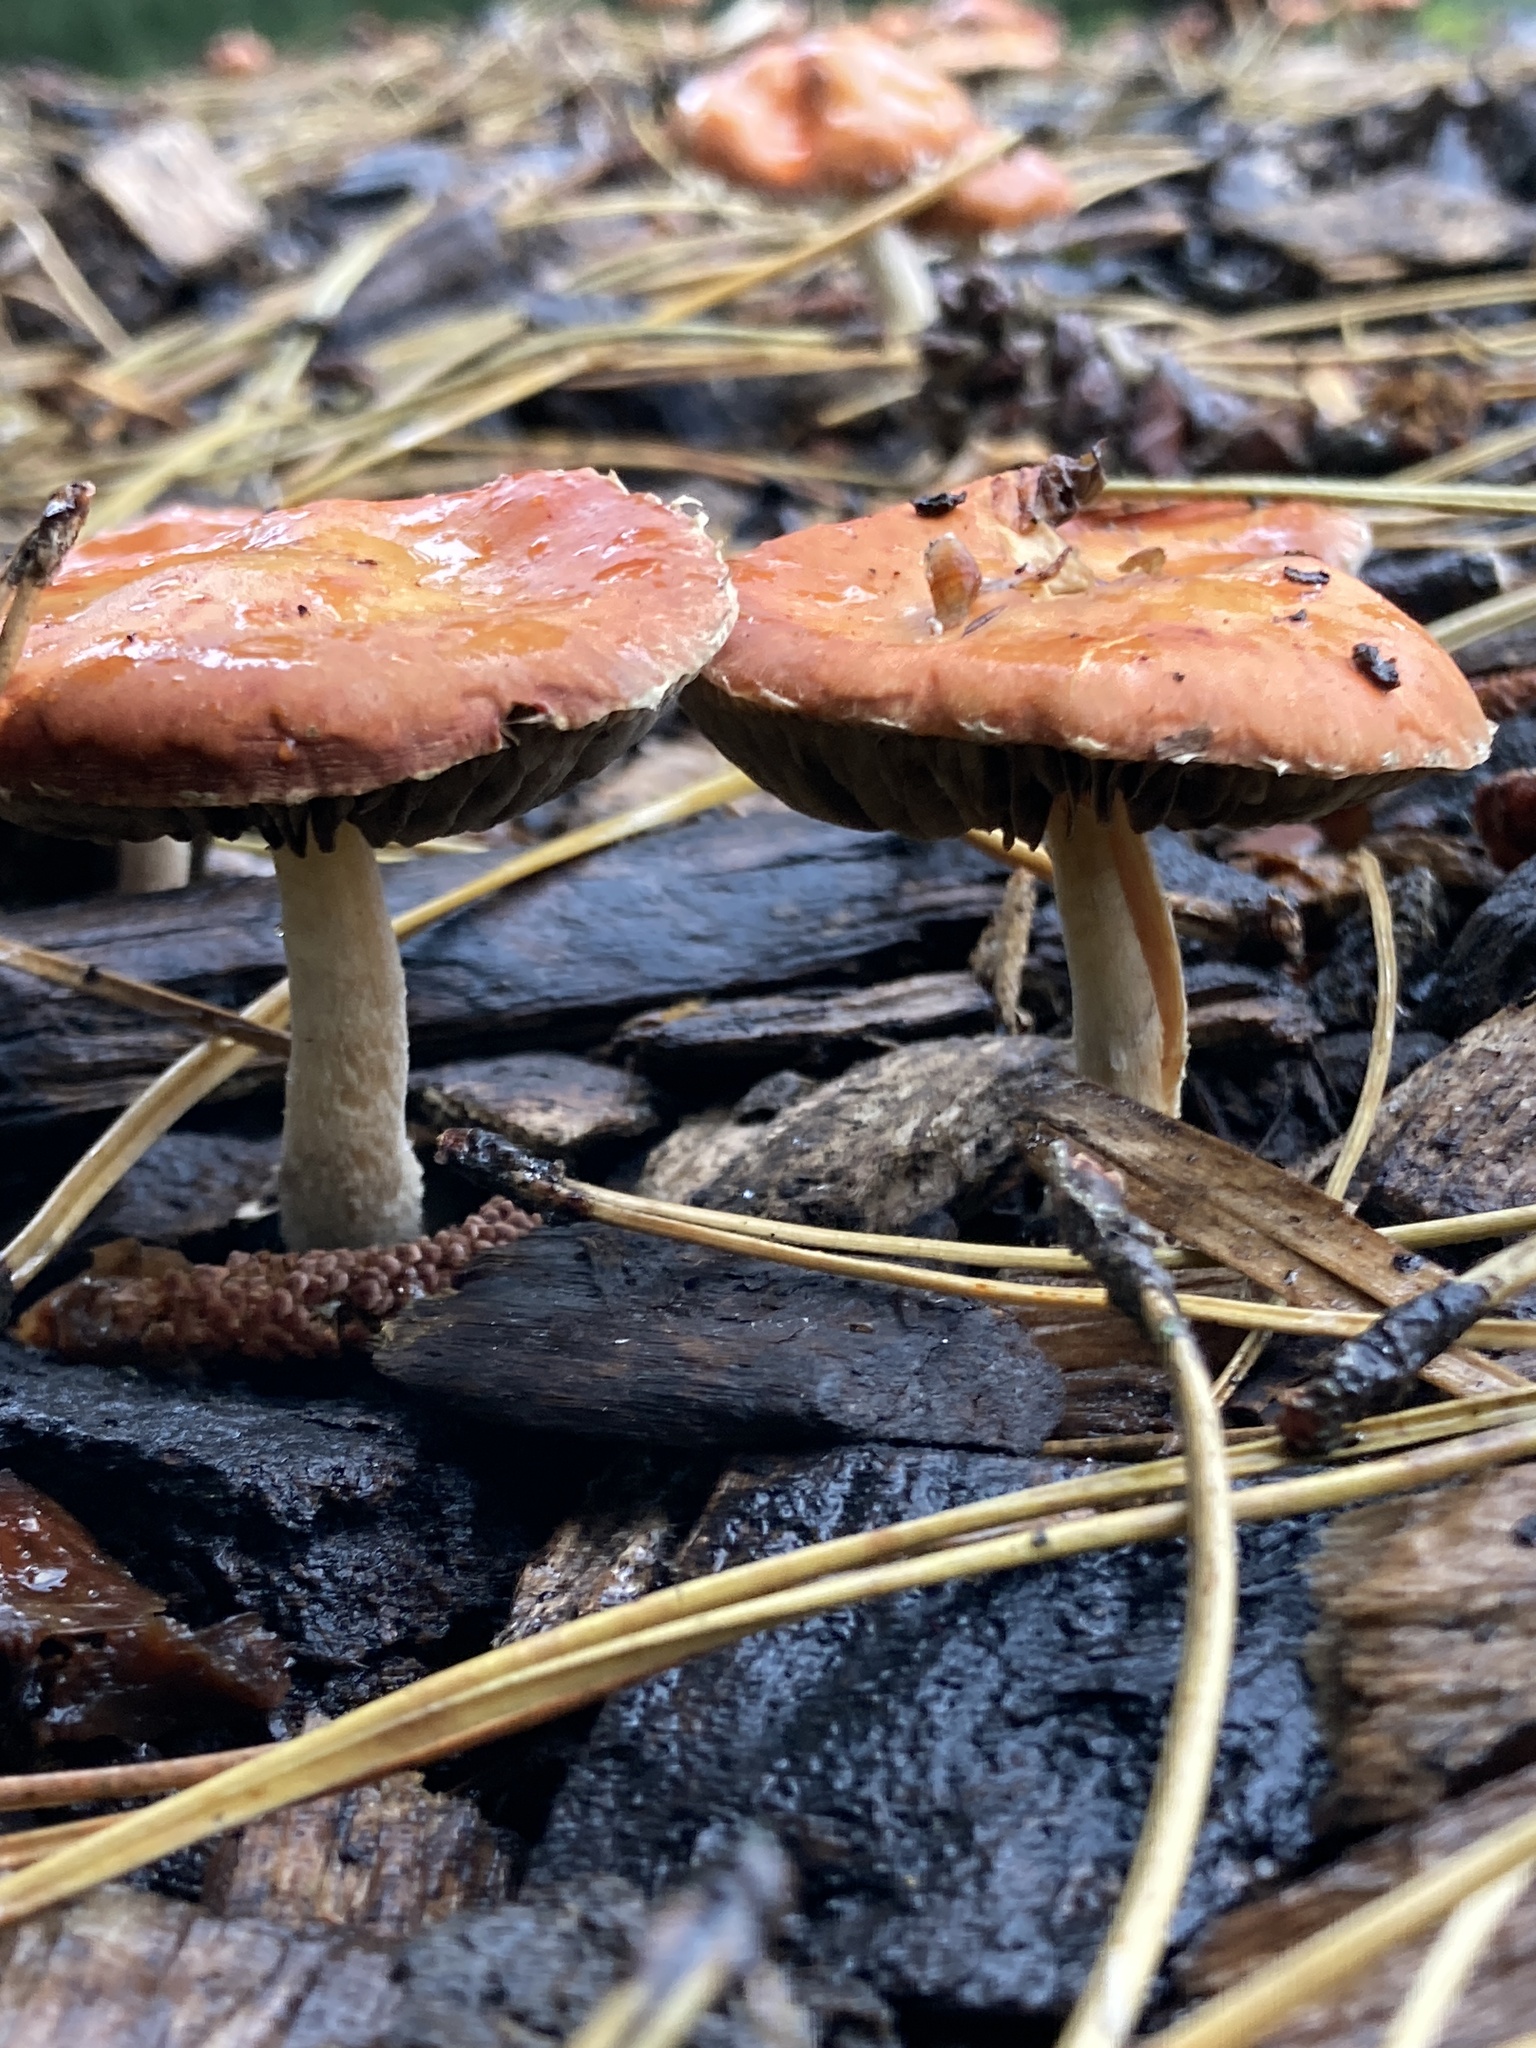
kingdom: Fungi
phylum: Basidiomycota
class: Agaricomycetes
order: Agaricales
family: Strophariaceae
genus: Leratiomyces
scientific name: Leratiomyces ceres
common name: Redlead roundhead
